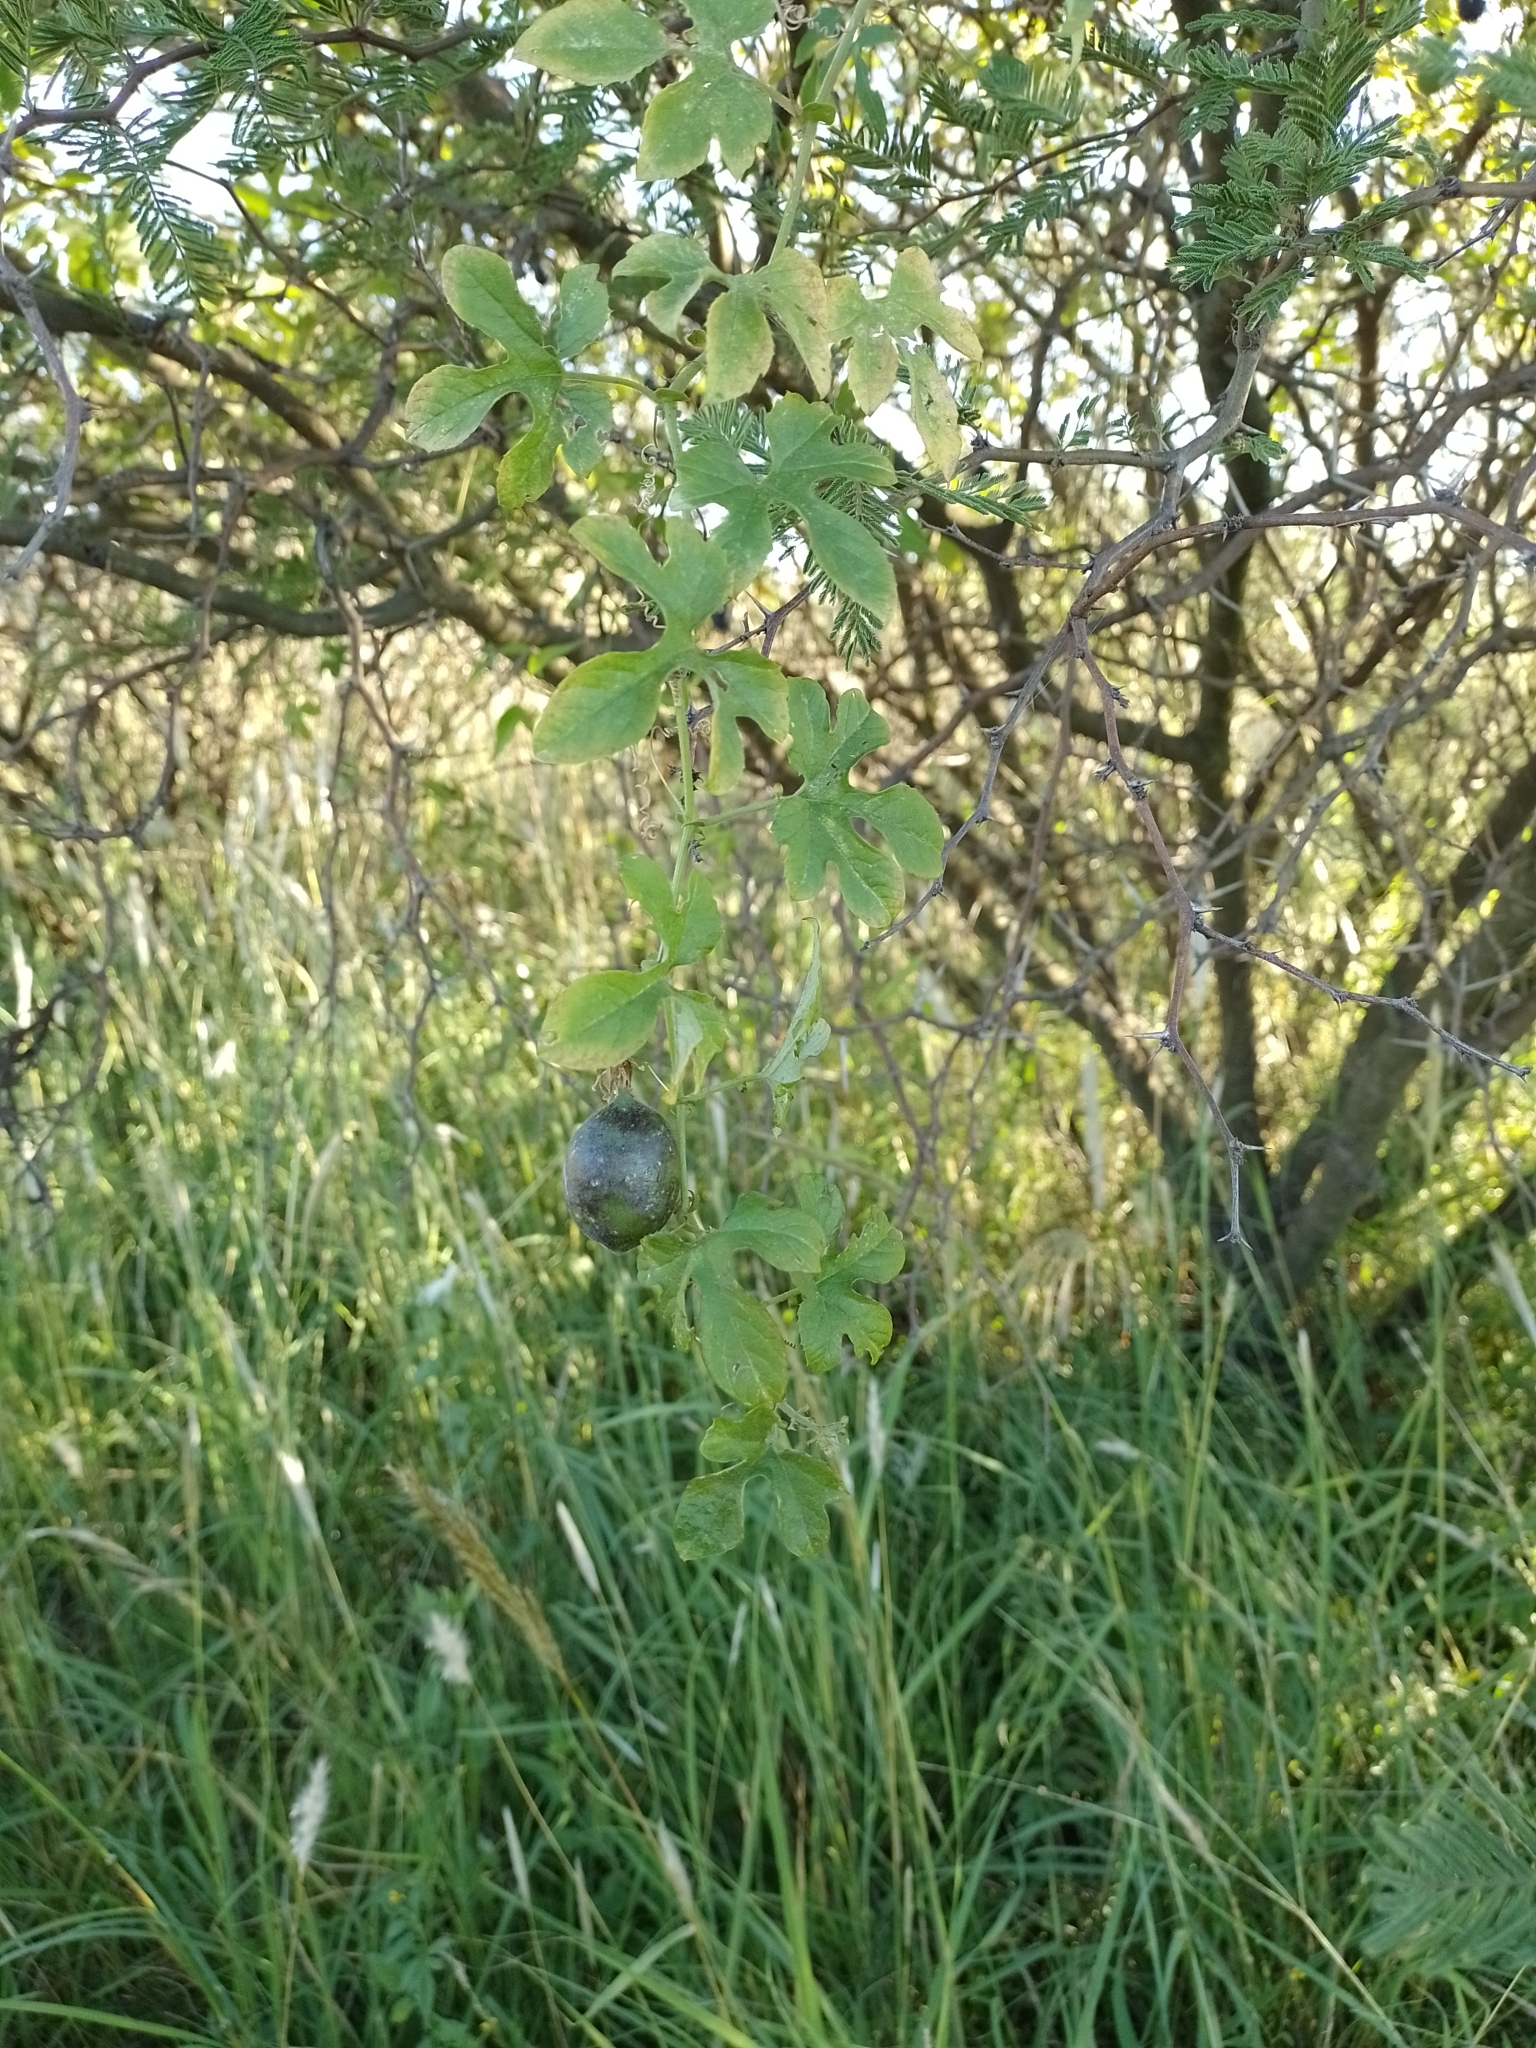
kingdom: Plantae
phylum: Tracheophyta
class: Magnoliopsida
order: Malpighiales
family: Passifloraceae
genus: Passiflora
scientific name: Passiflora morifolia
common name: Woodland passionflower
